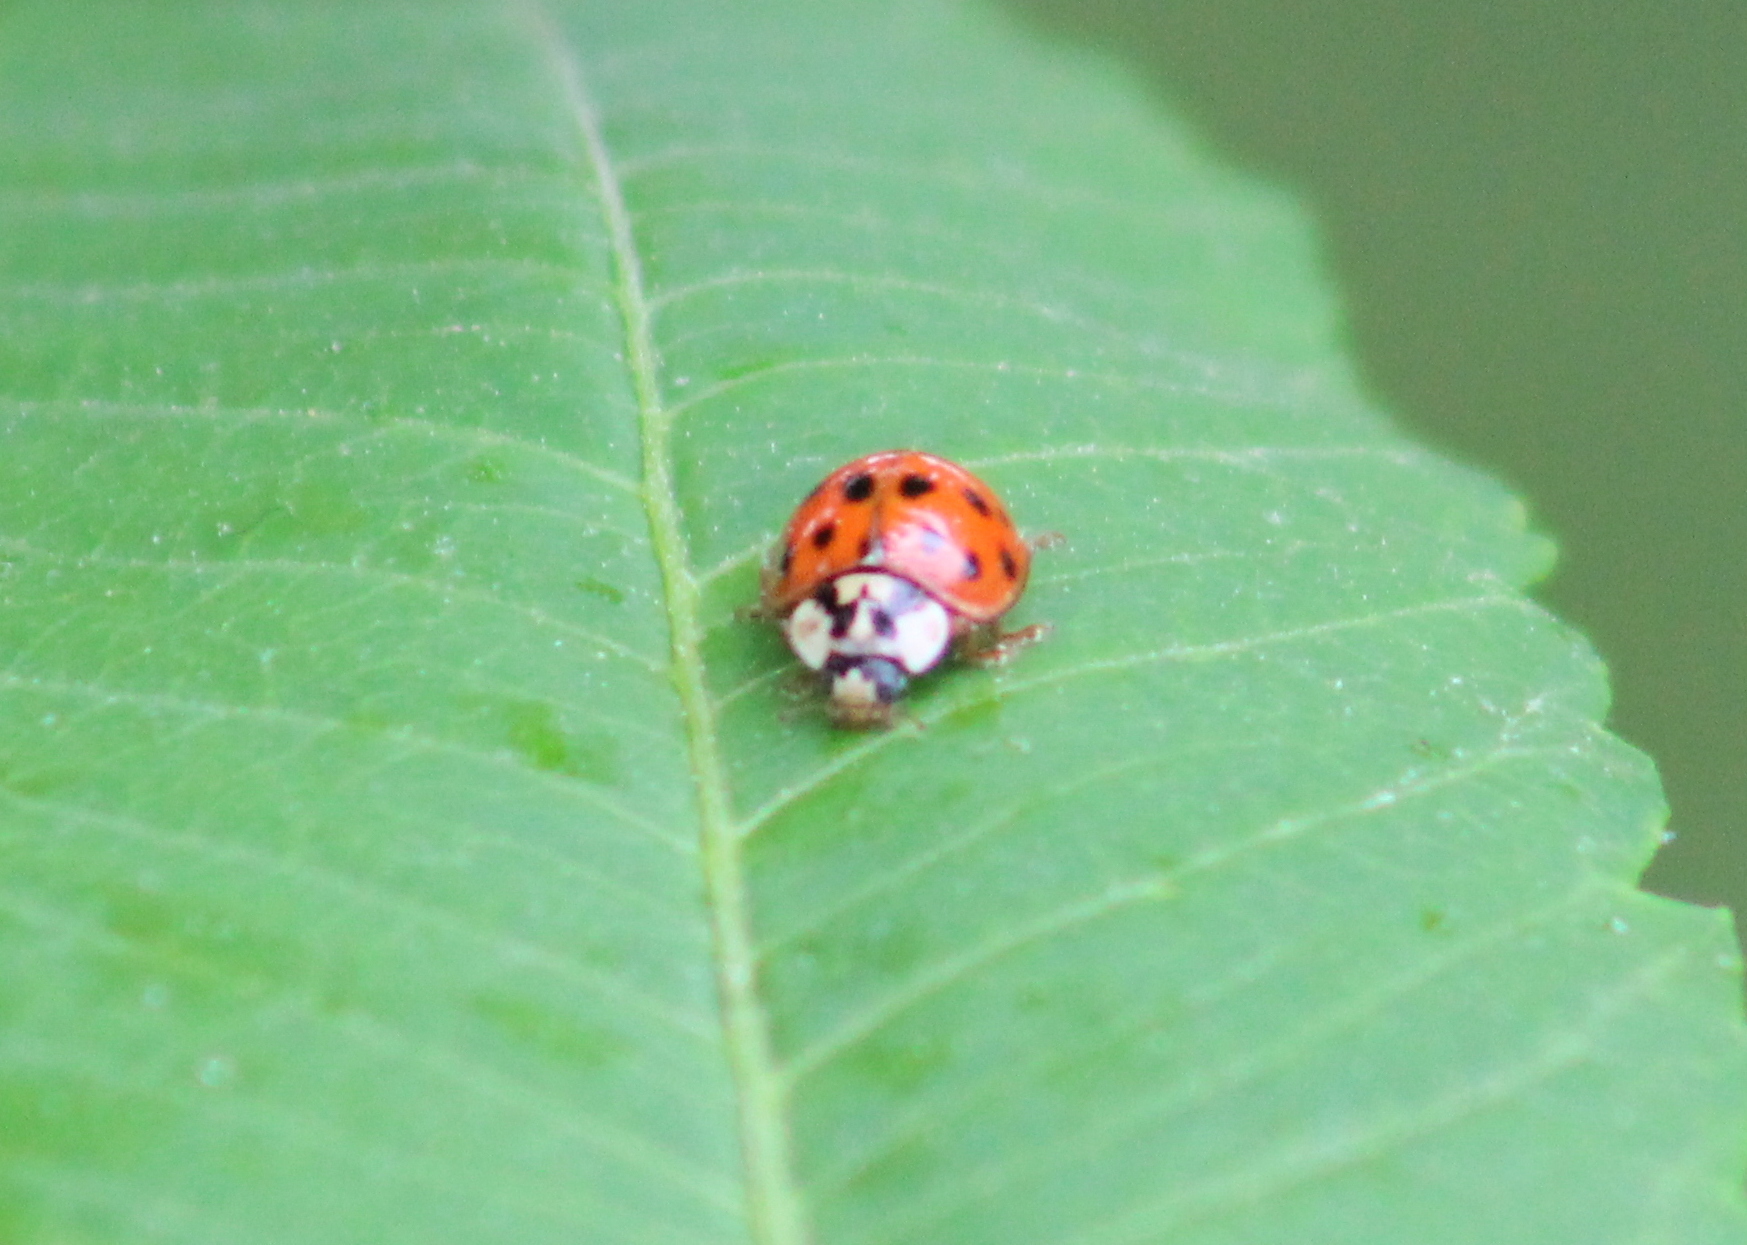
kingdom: Animalia
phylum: Arthropoda
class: Insecta
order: Coleoptera
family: Coccinellidae
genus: Harmonia
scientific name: Harmonia axyridis
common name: Harlequin ladybird
